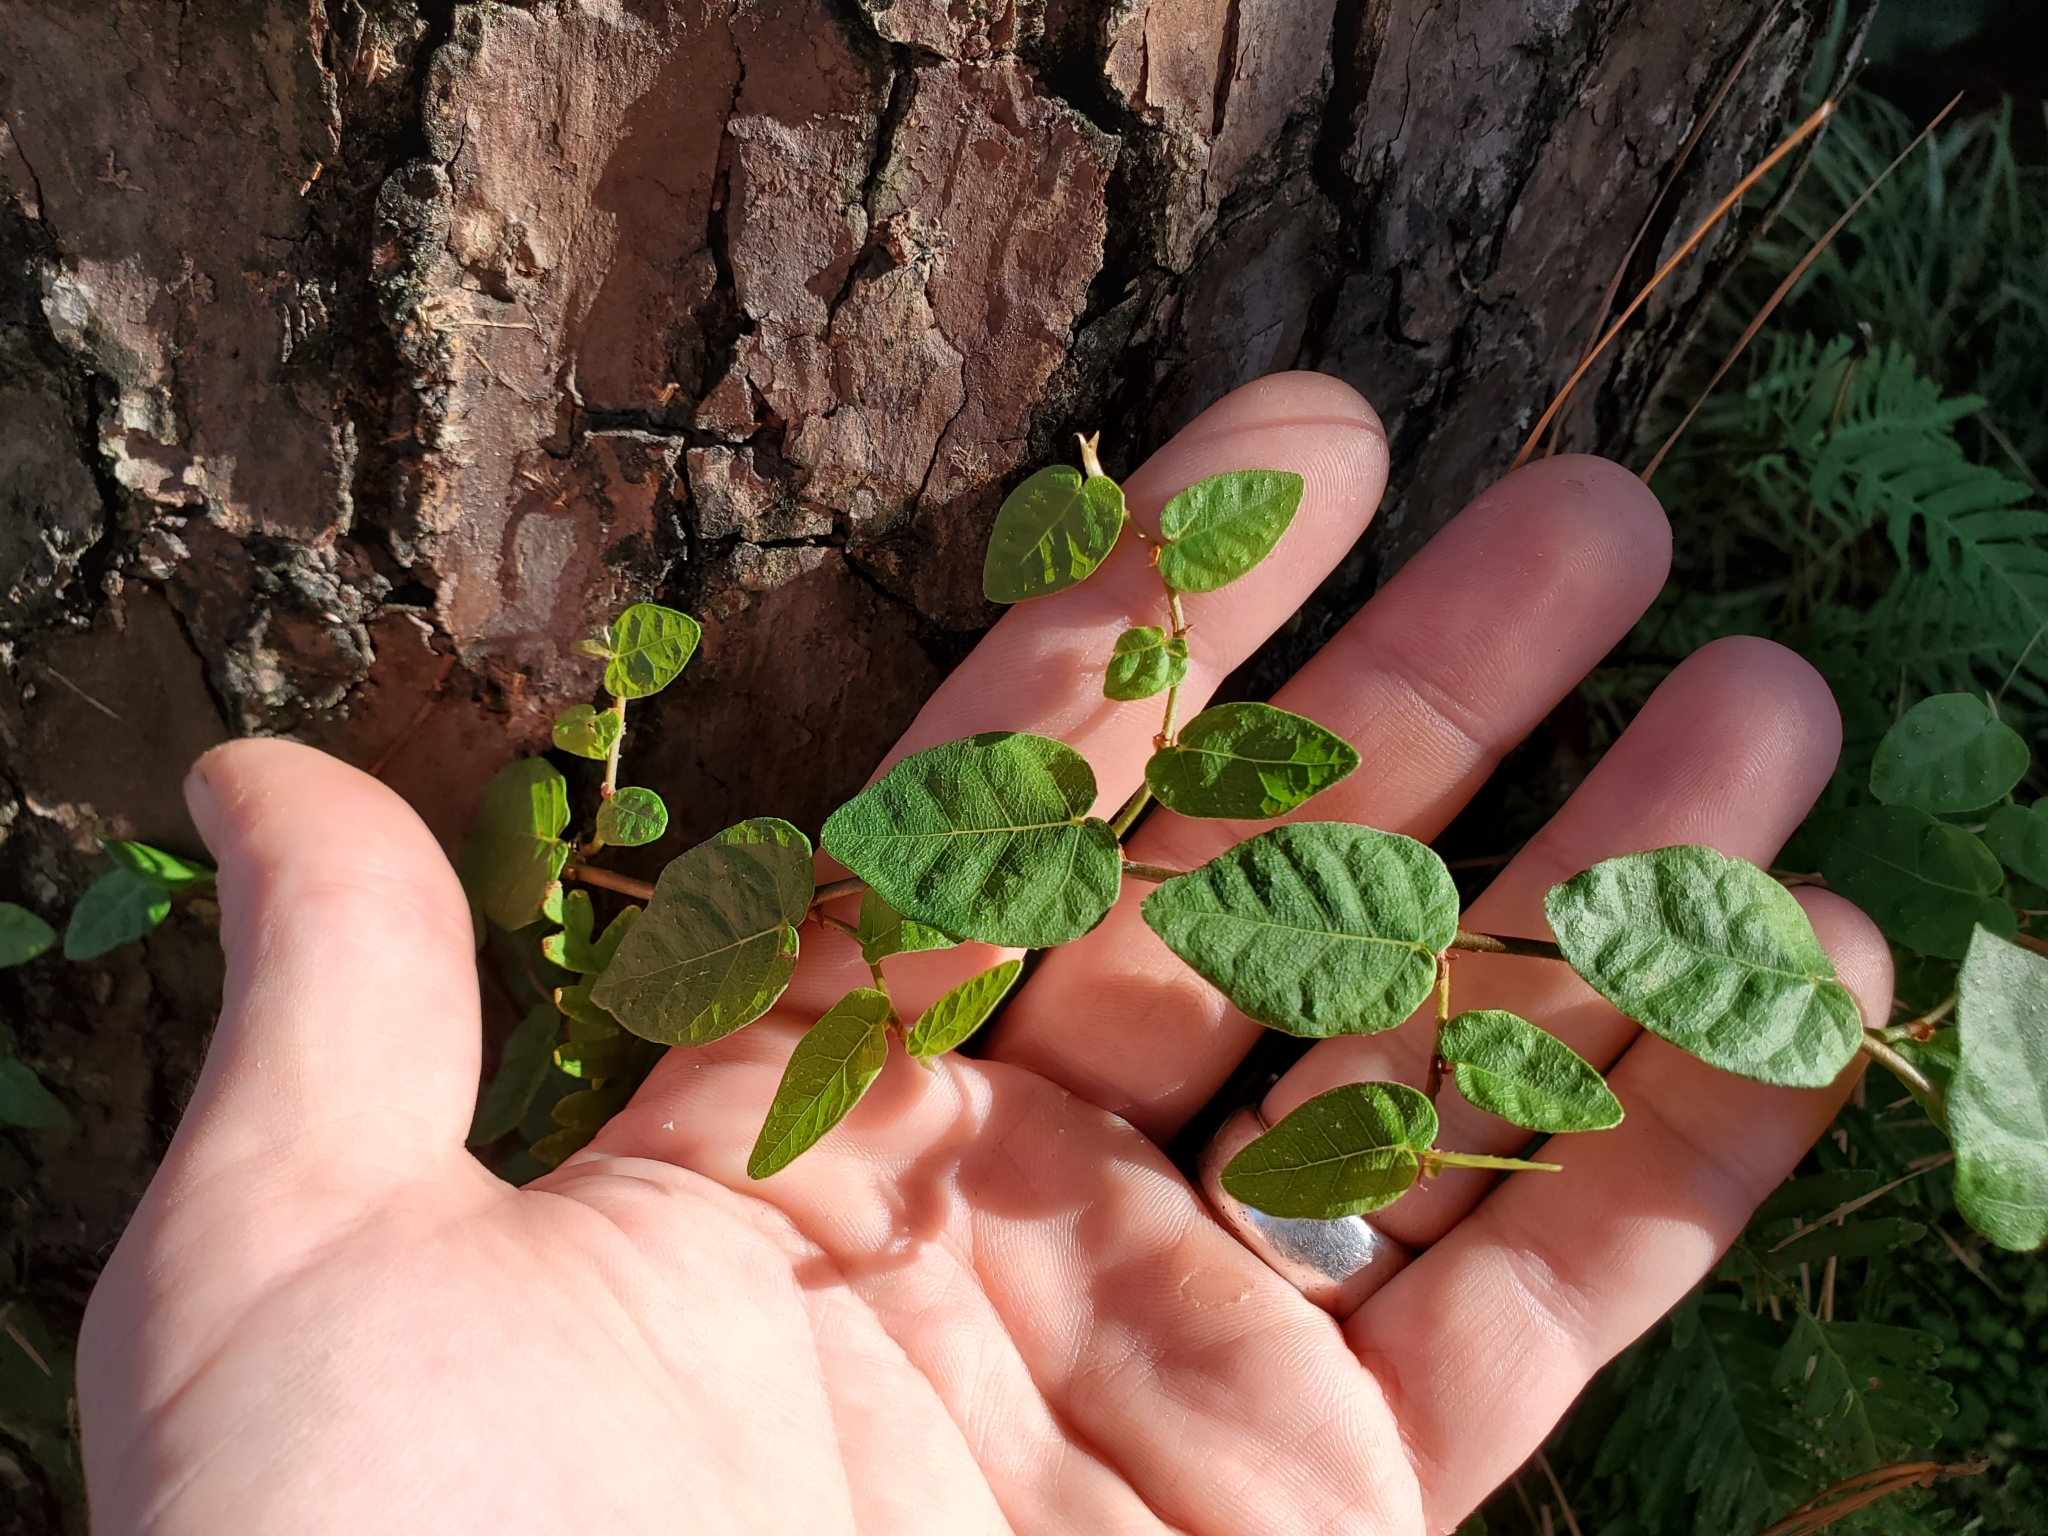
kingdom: Plantae
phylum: Tracheophyta
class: Magnoliopsida
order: Rosales
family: Moraceae
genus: Ficus
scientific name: Ficus pumila
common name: Climbingfig
